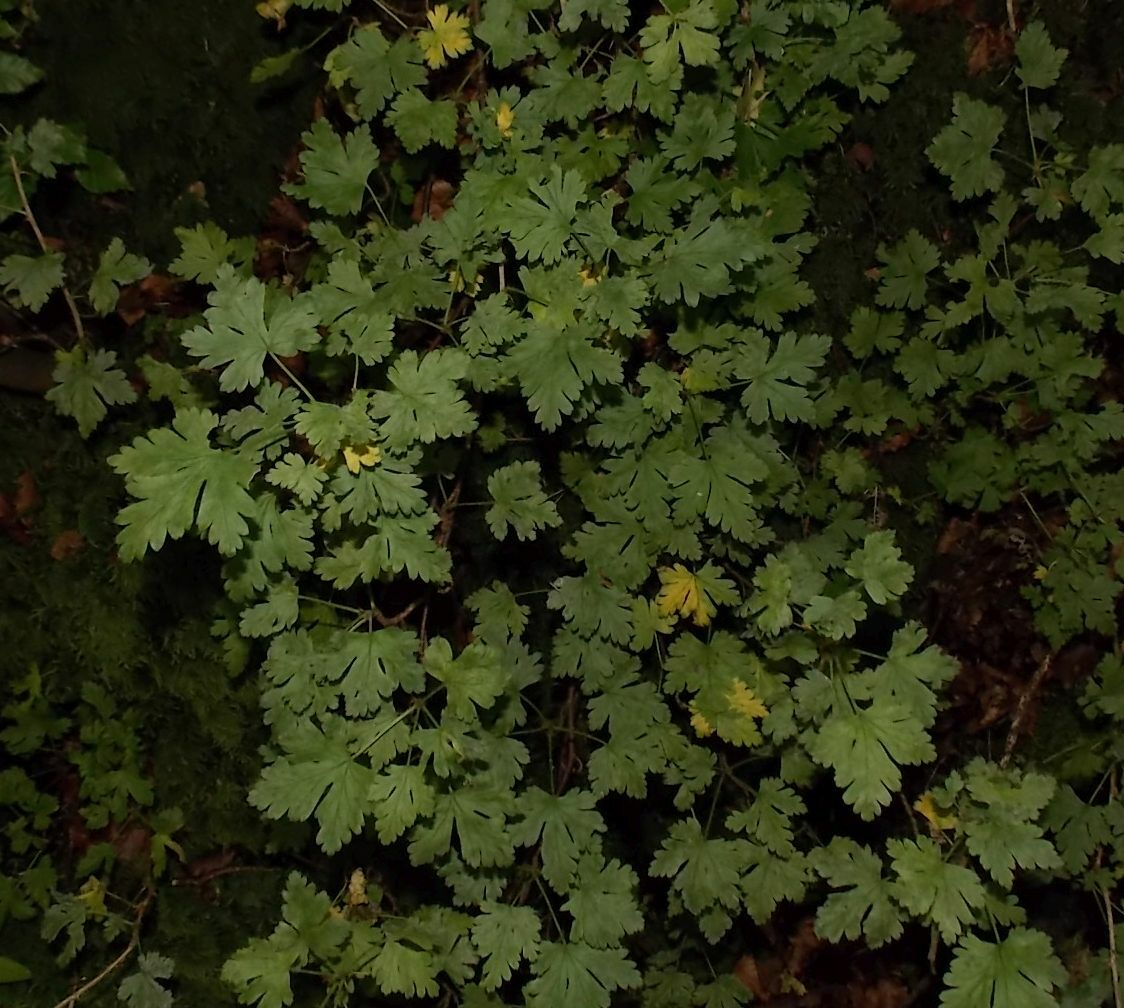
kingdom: Plantae
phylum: Tracheophyta
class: Magnoliopsida
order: Saxifragales
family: Grossulariaceae
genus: Ribes
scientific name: Ribes uva-crispa
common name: Gooseberry
